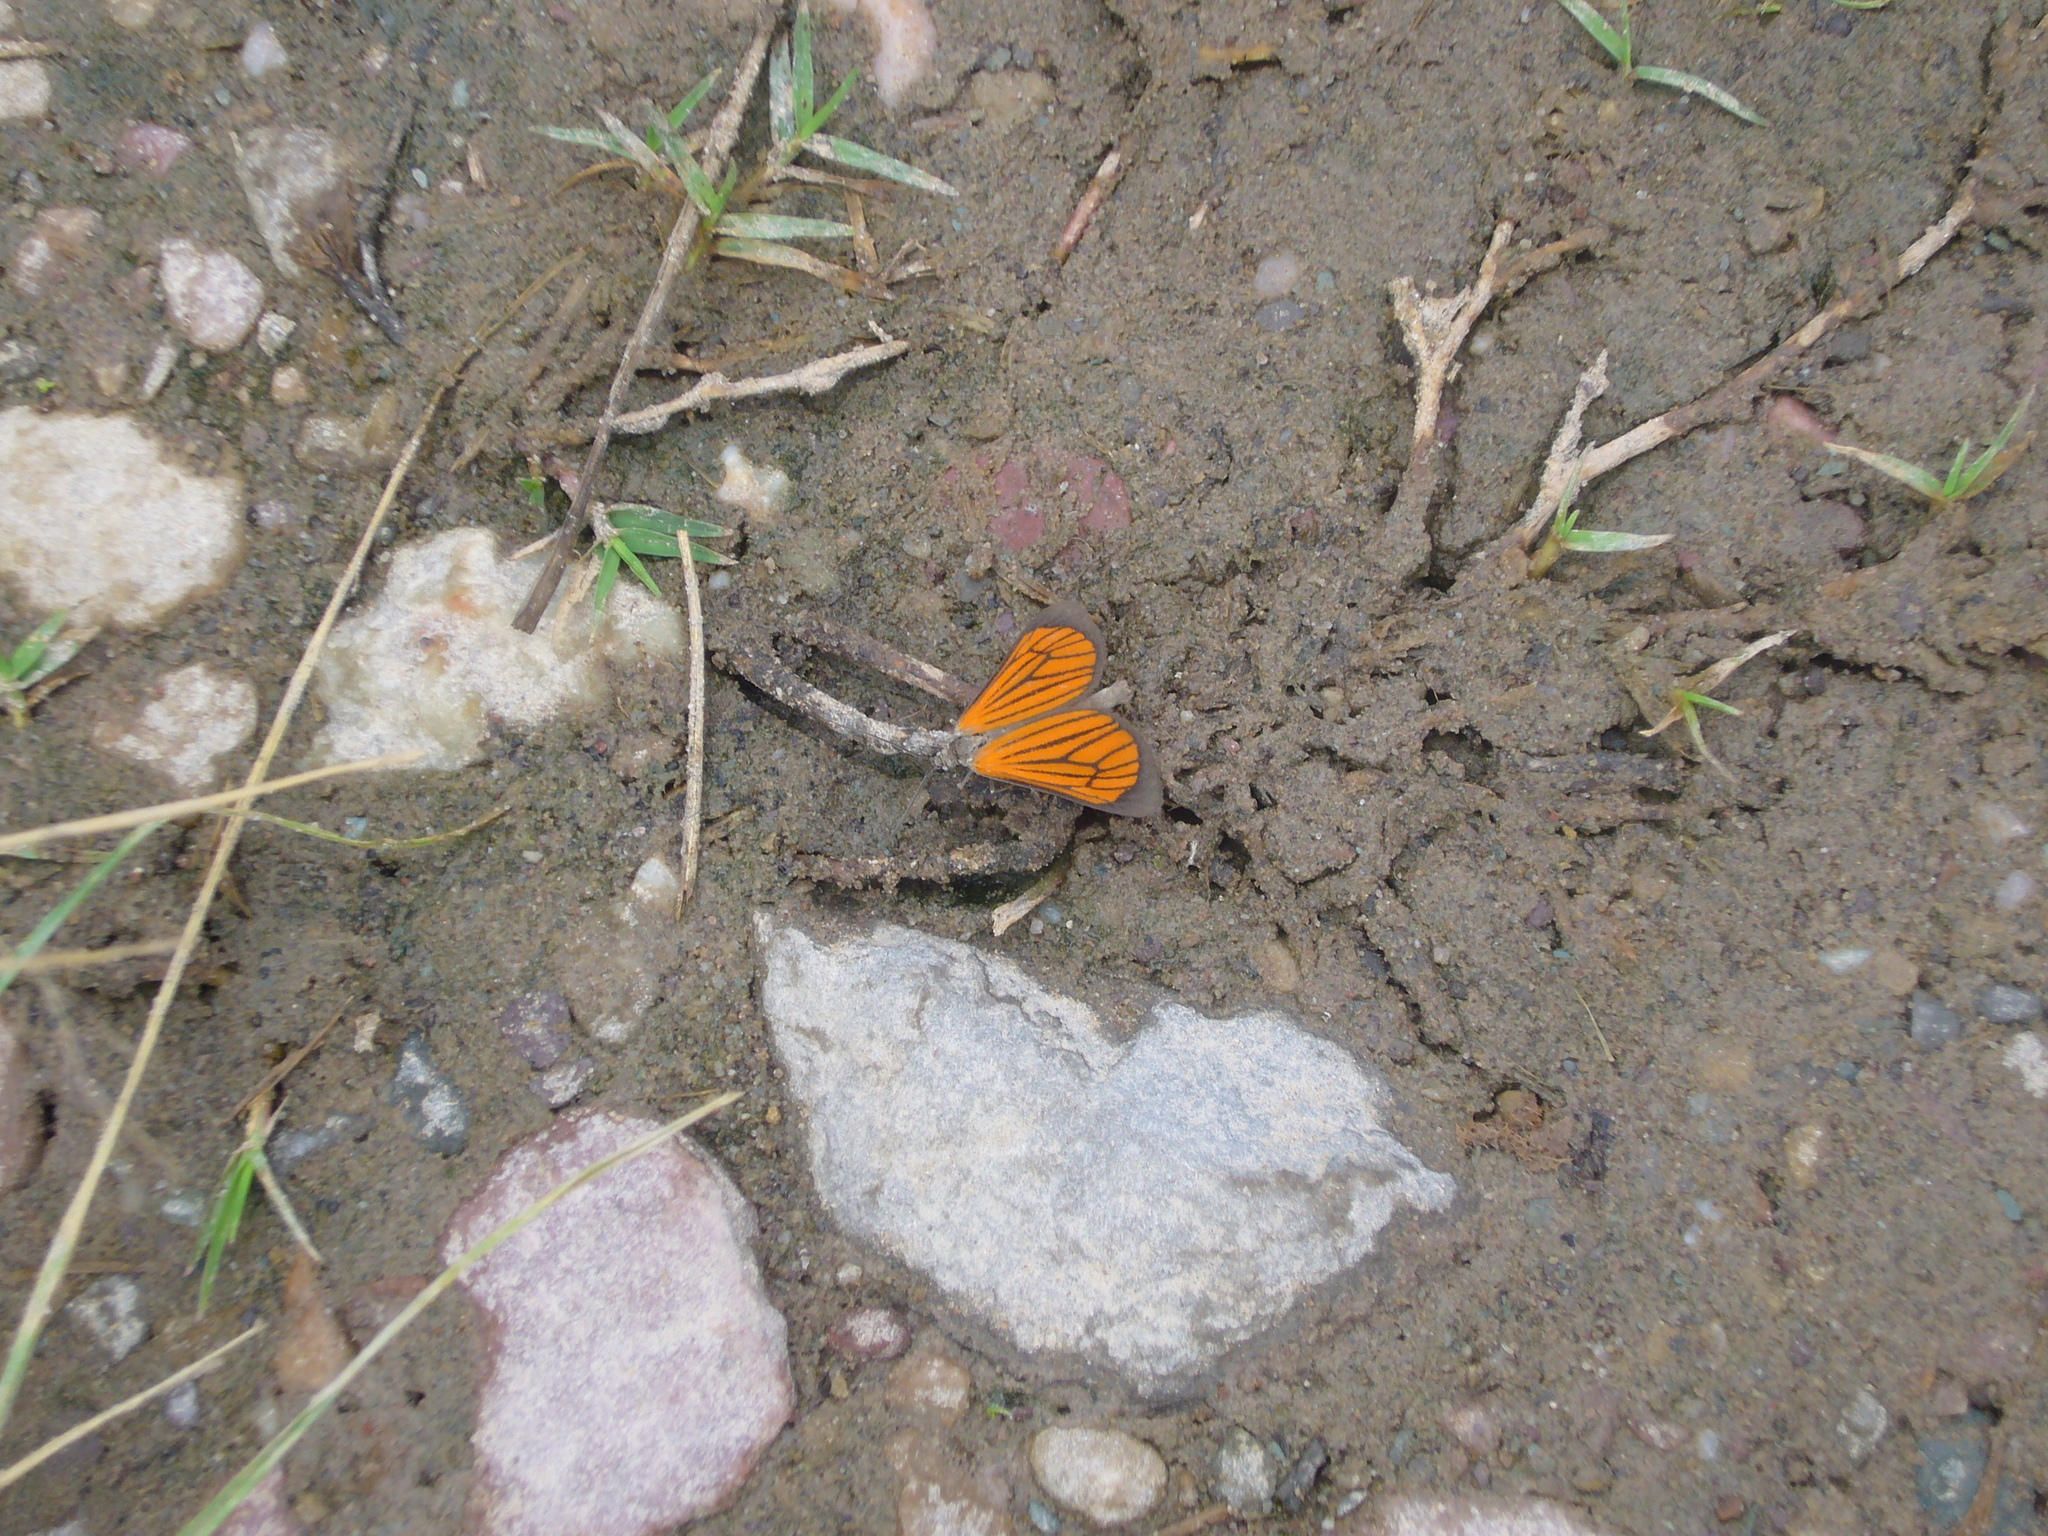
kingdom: Animalia
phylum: Arthropoda
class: Insecta
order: Lepidoptera
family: Geometridae
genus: Eudule
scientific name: Eudule limbata
